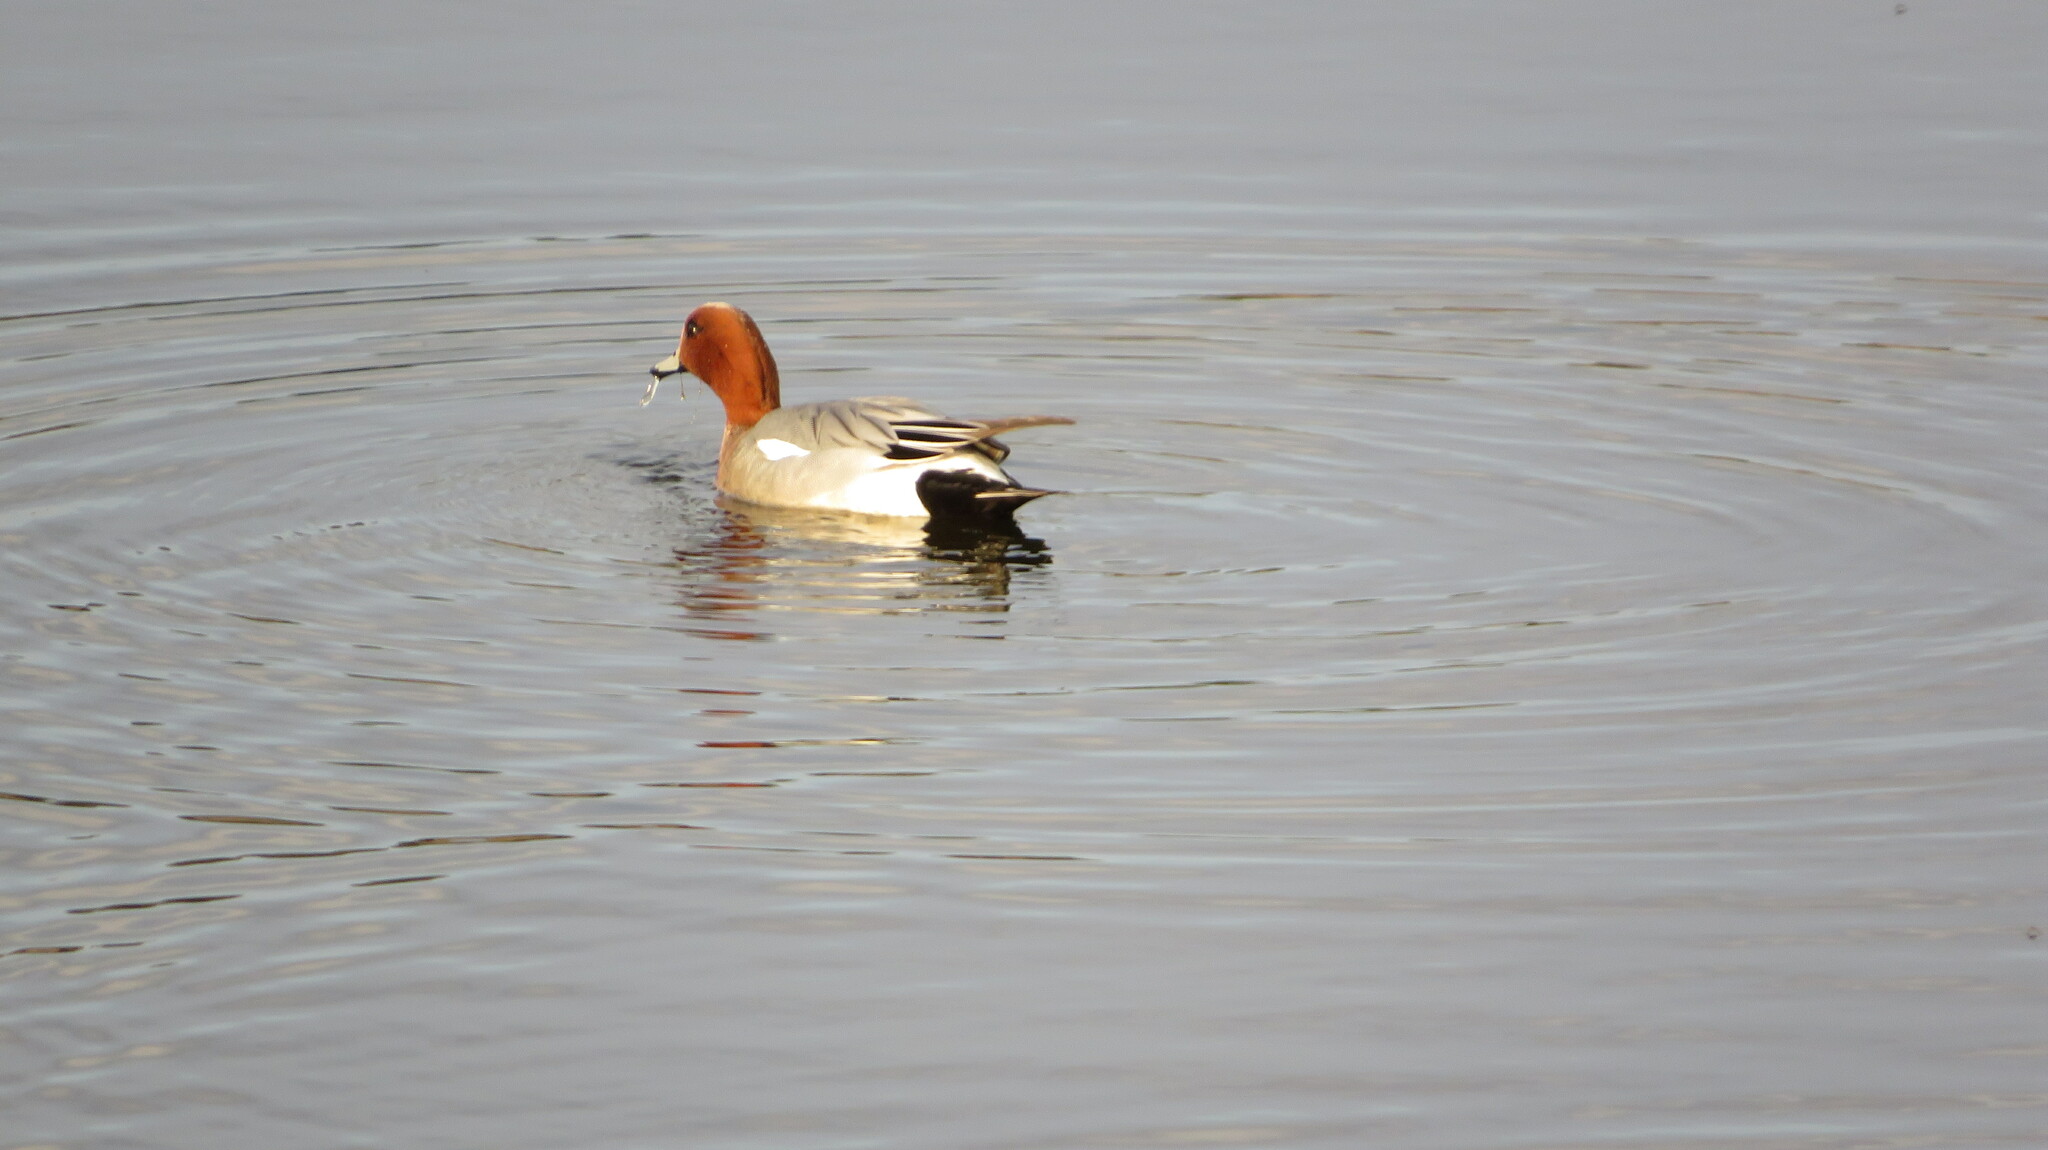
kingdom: Animalia
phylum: Chordata
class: Aves
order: Anseriformes
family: Anatidae
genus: Mareca
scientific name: Mareca penelope
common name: Eurasian wigeon
